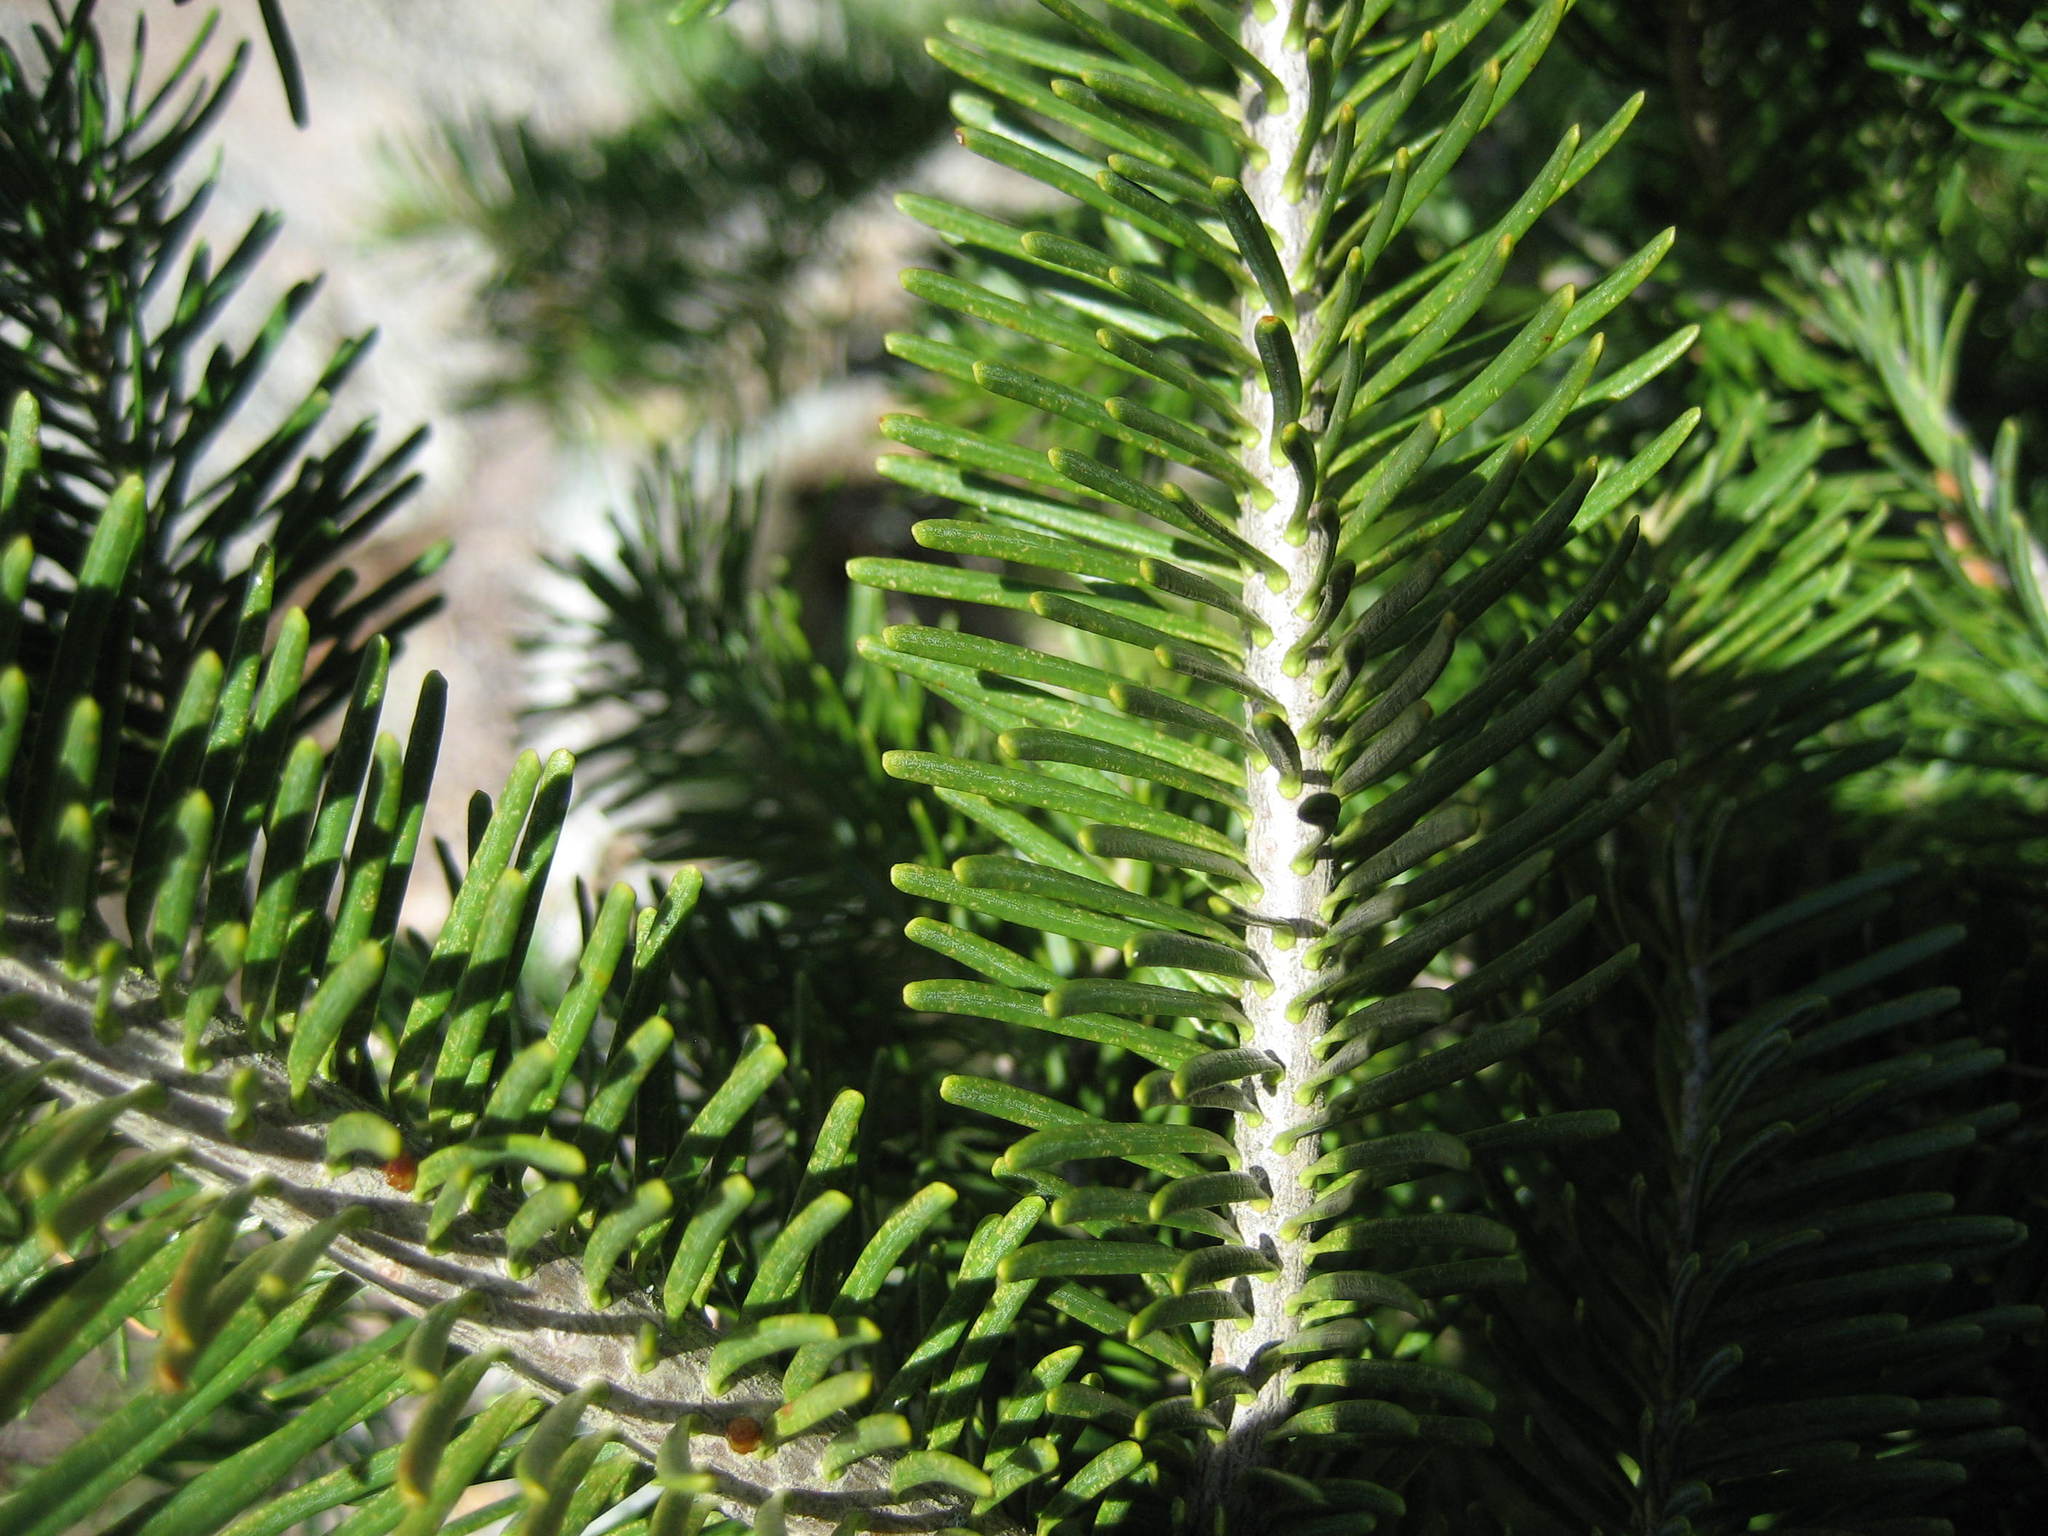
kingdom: Plantae
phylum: Tracheophyta
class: Pinopsida
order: Pinales
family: Pinaceae
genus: Abies
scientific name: Abies balsamea
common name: Balsam fir
